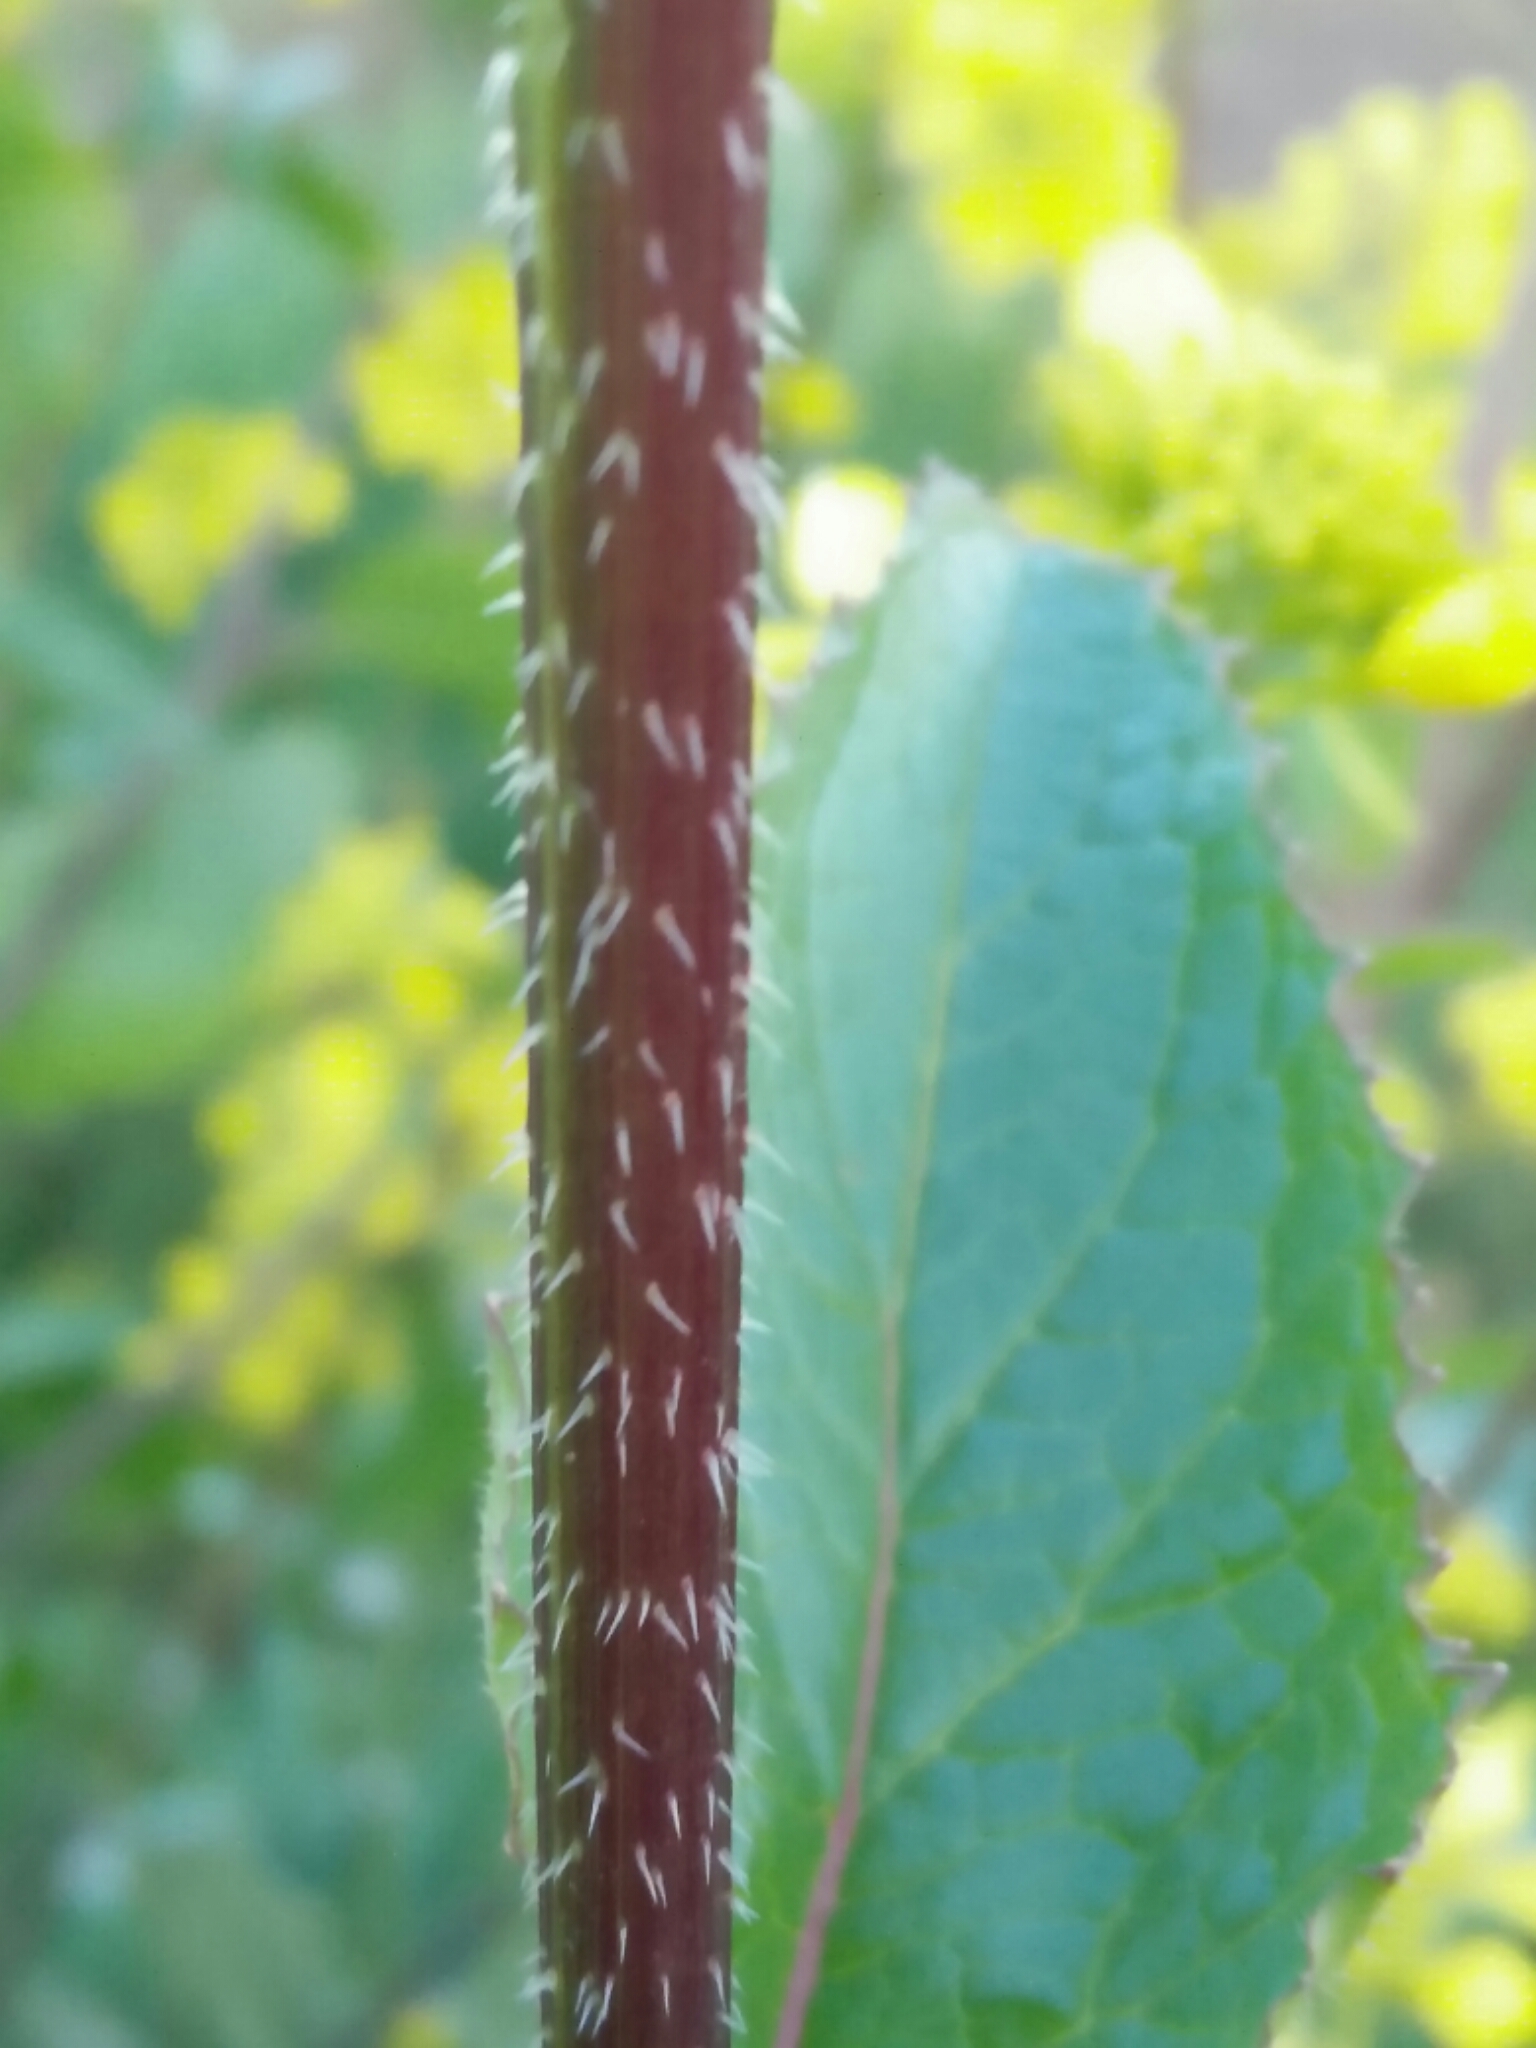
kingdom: Plantae
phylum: Tracheophyta
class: Magnoliopsida
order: Brassicales
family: Brassicaceae
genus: Sinapis
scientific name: Sinapis arvensis
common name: Charlock
